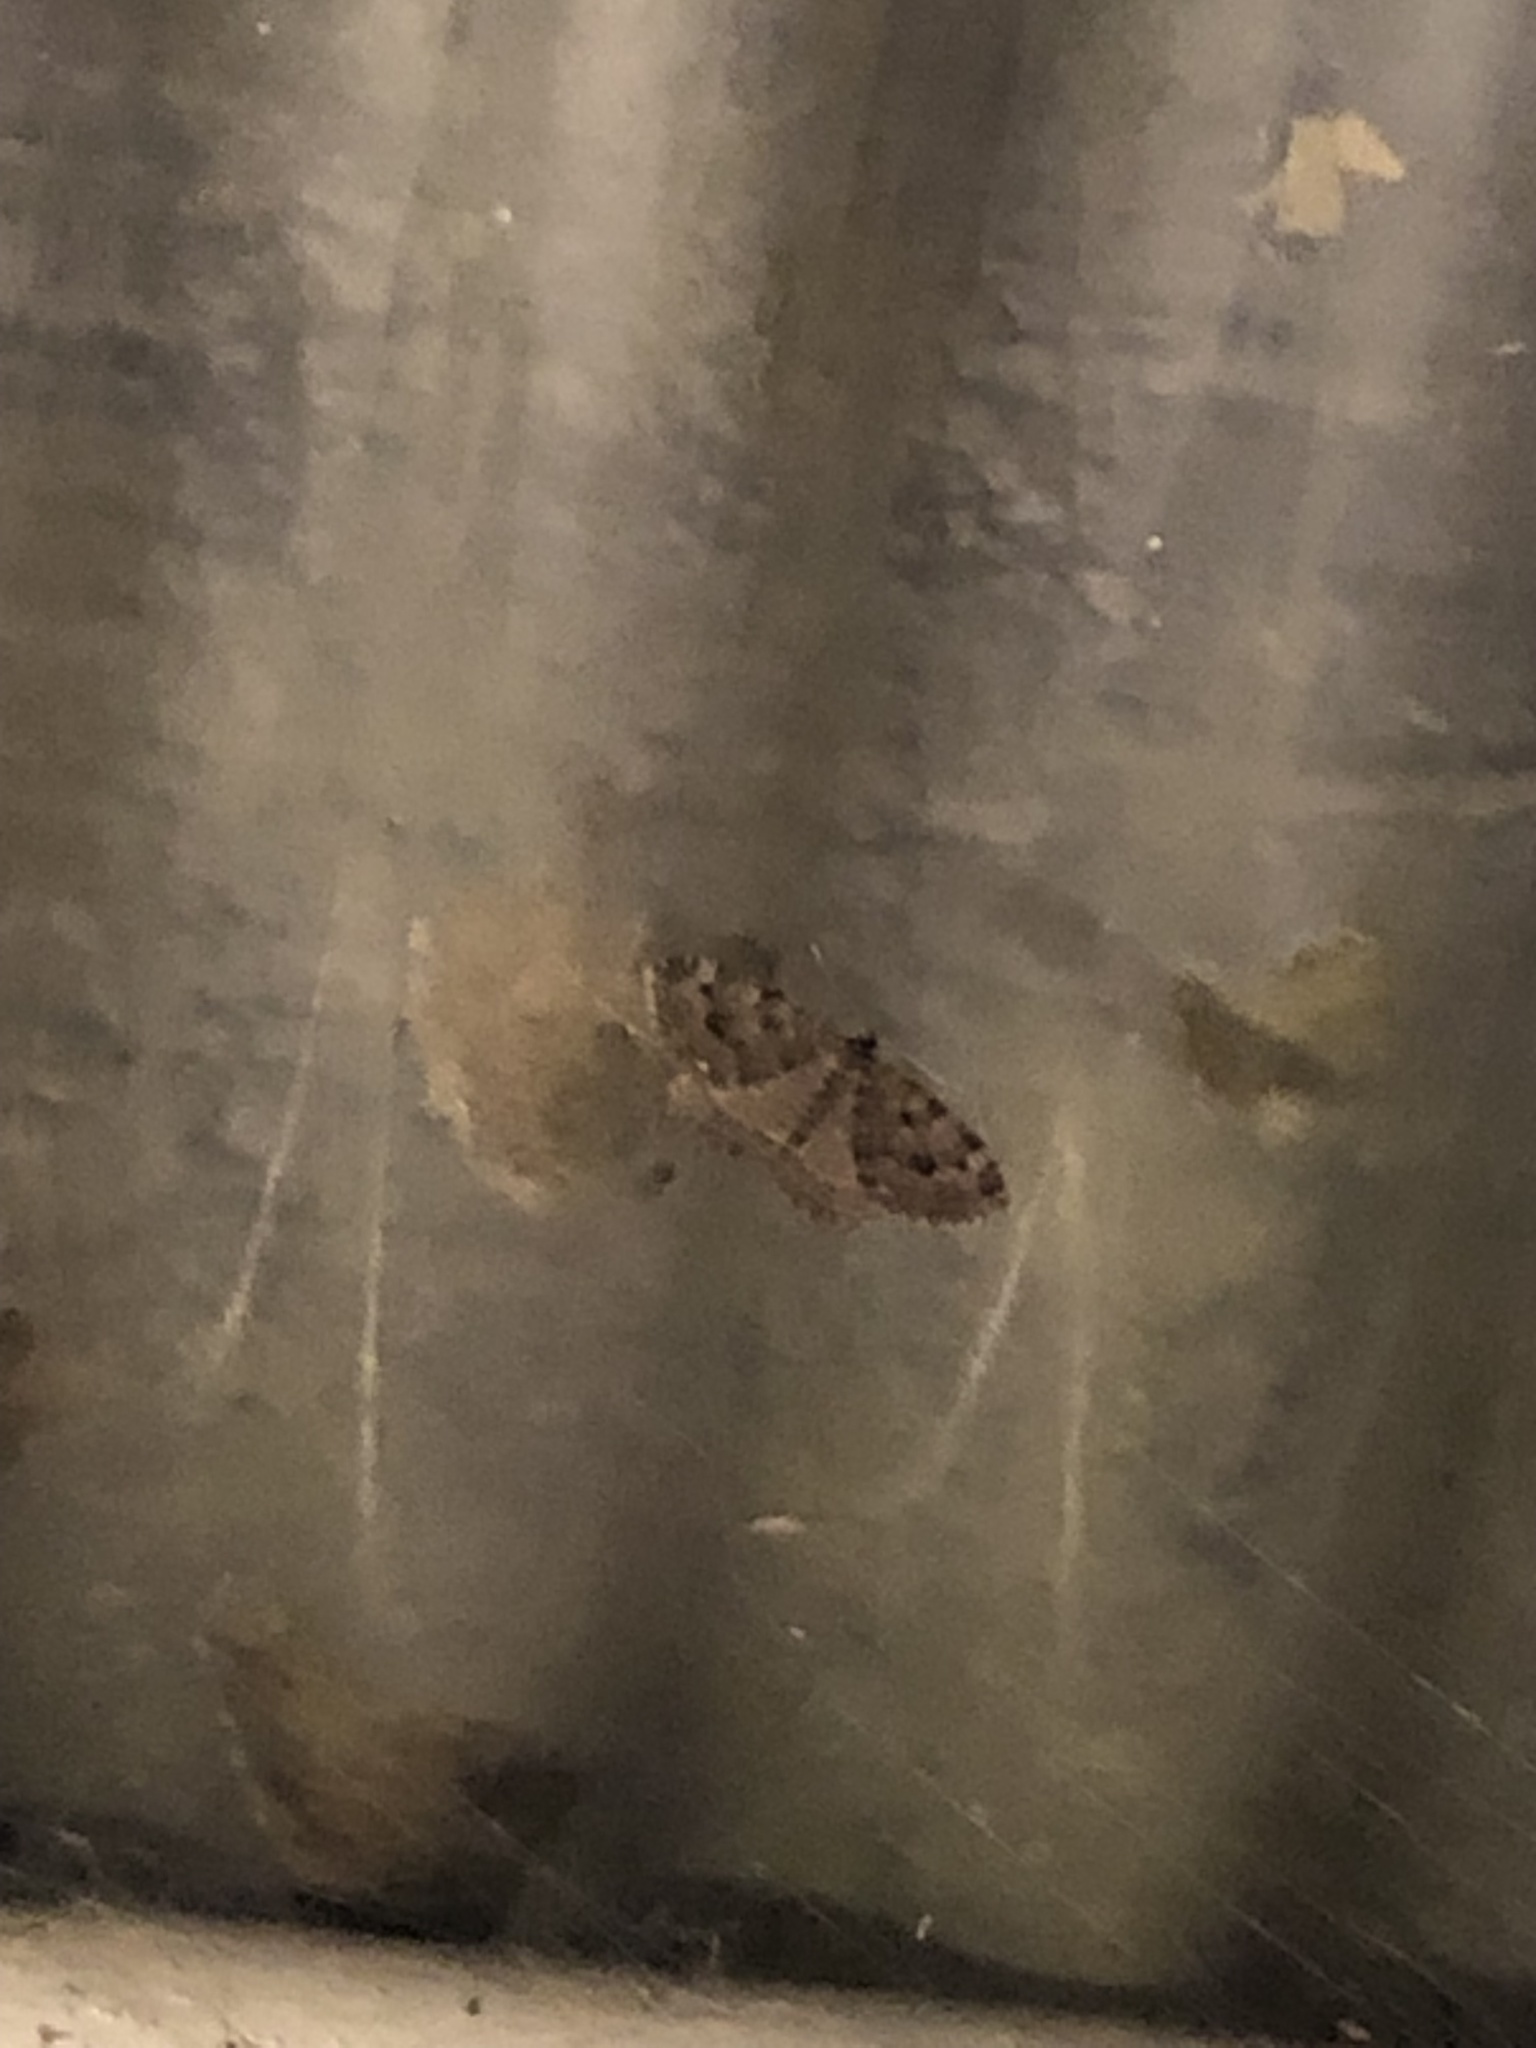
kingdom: Animalia
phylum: Arthropoda
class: Insecta
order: Lepidoptera
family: Geometridae
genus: Triphosa
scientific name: Triphosa dubitata
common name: Tissue
